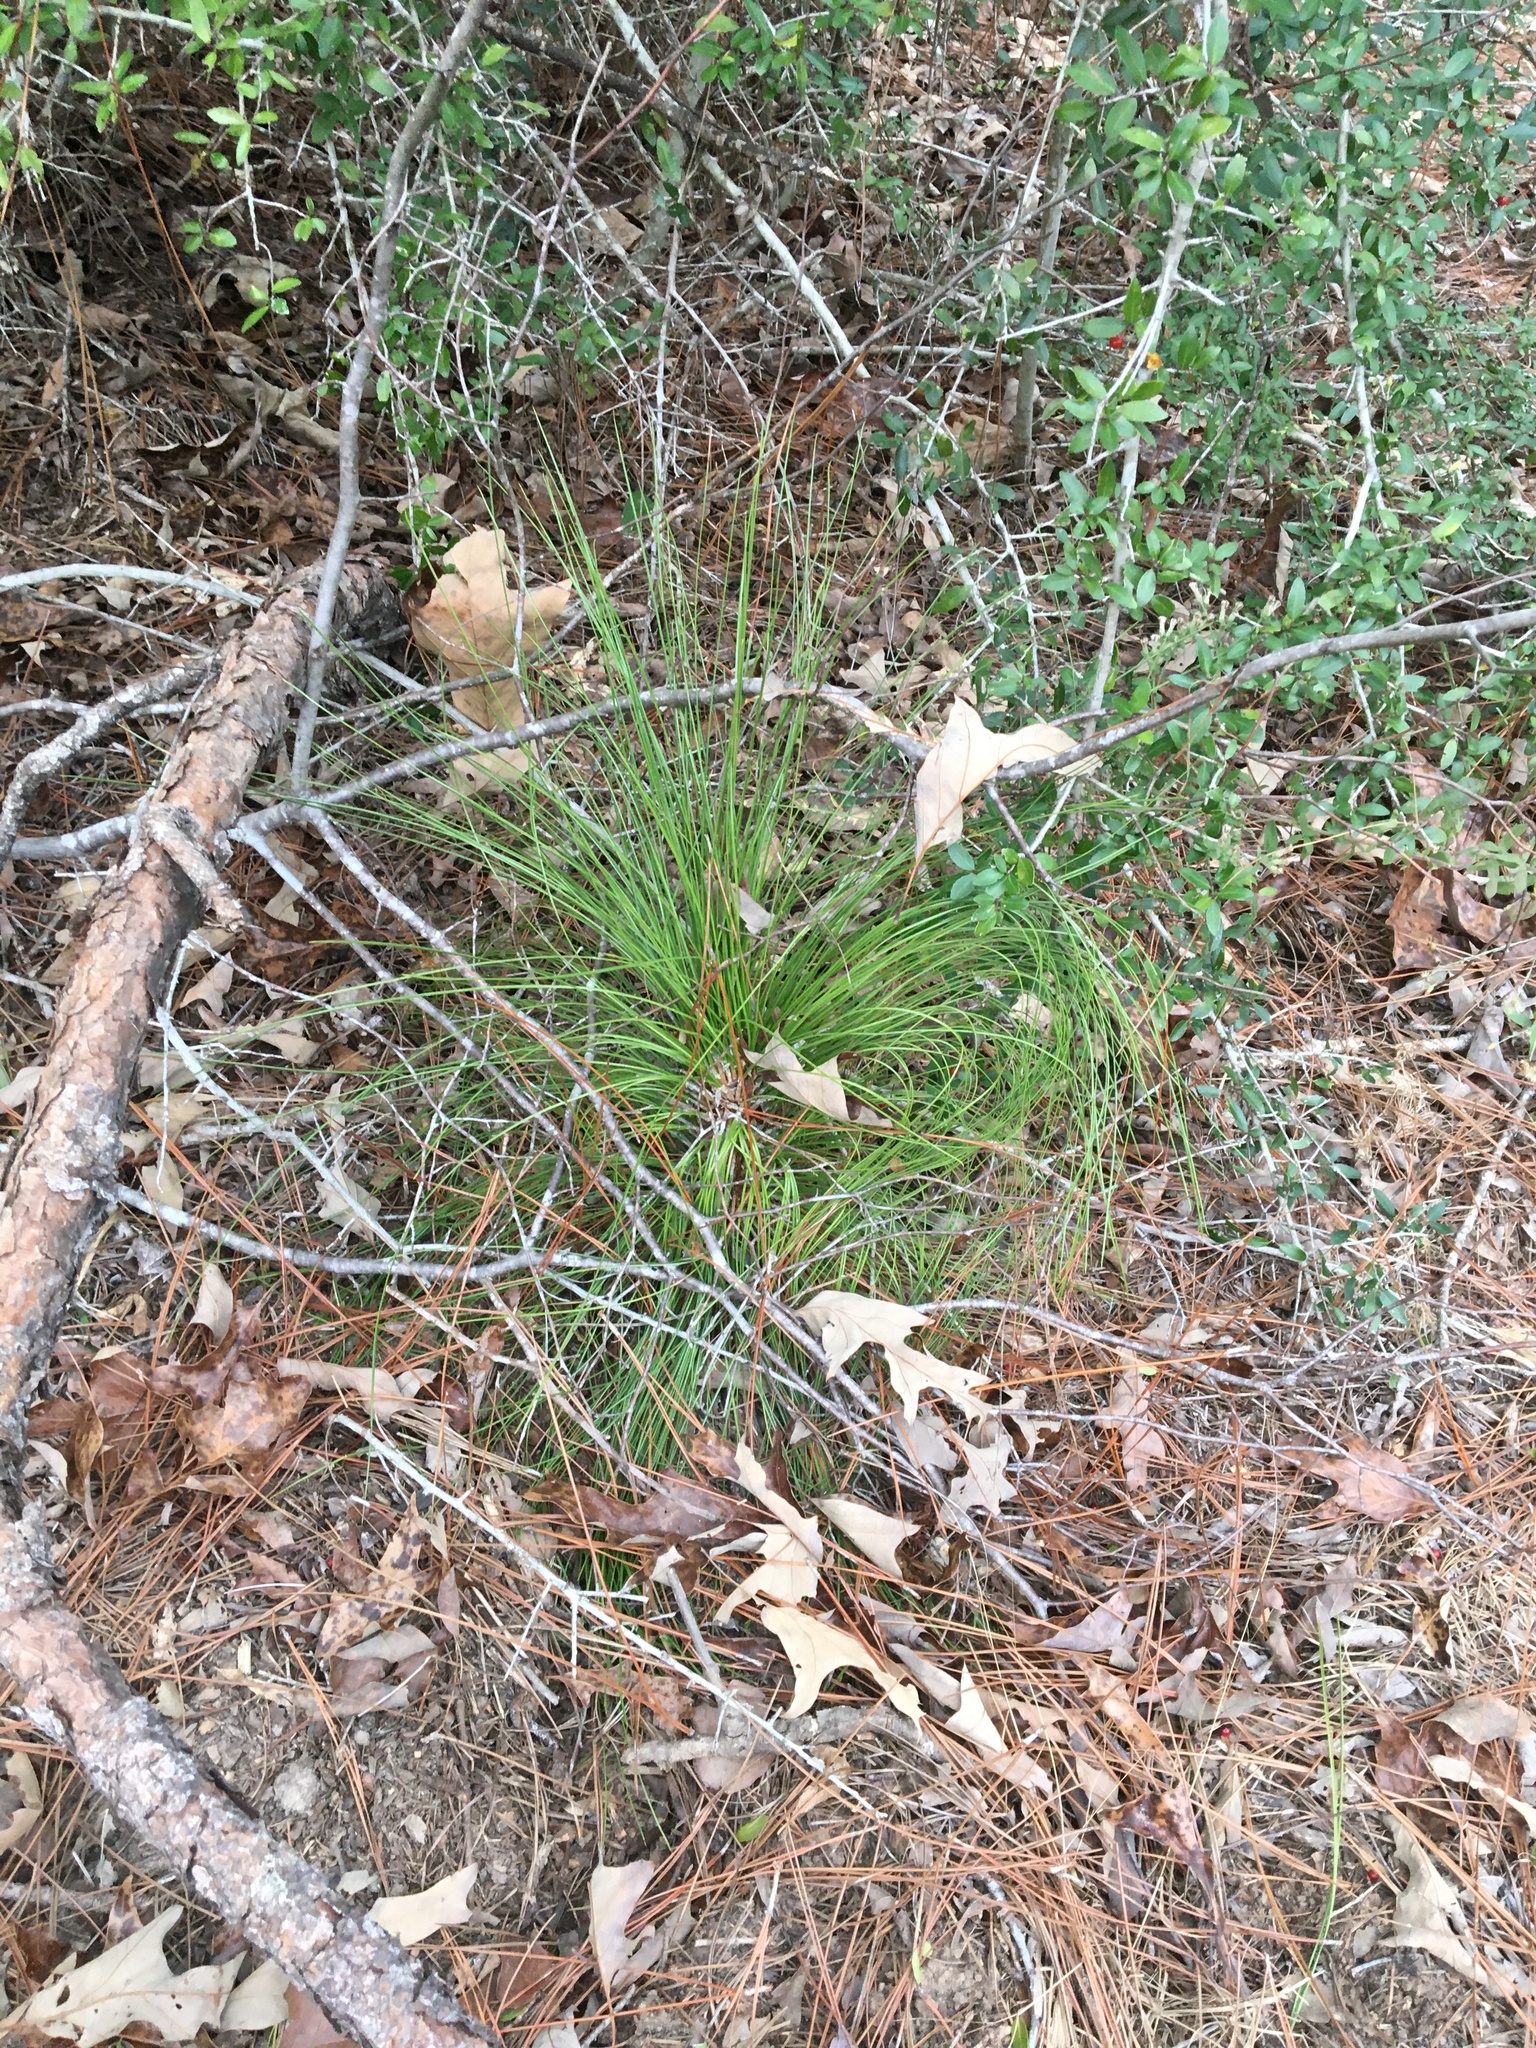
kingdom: Plantae
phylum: Tracheophyta
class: Pinopsida
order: Pinales
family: Pinaceae
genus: Pinus
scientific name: Pinus palustris
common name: Longleaf pine
